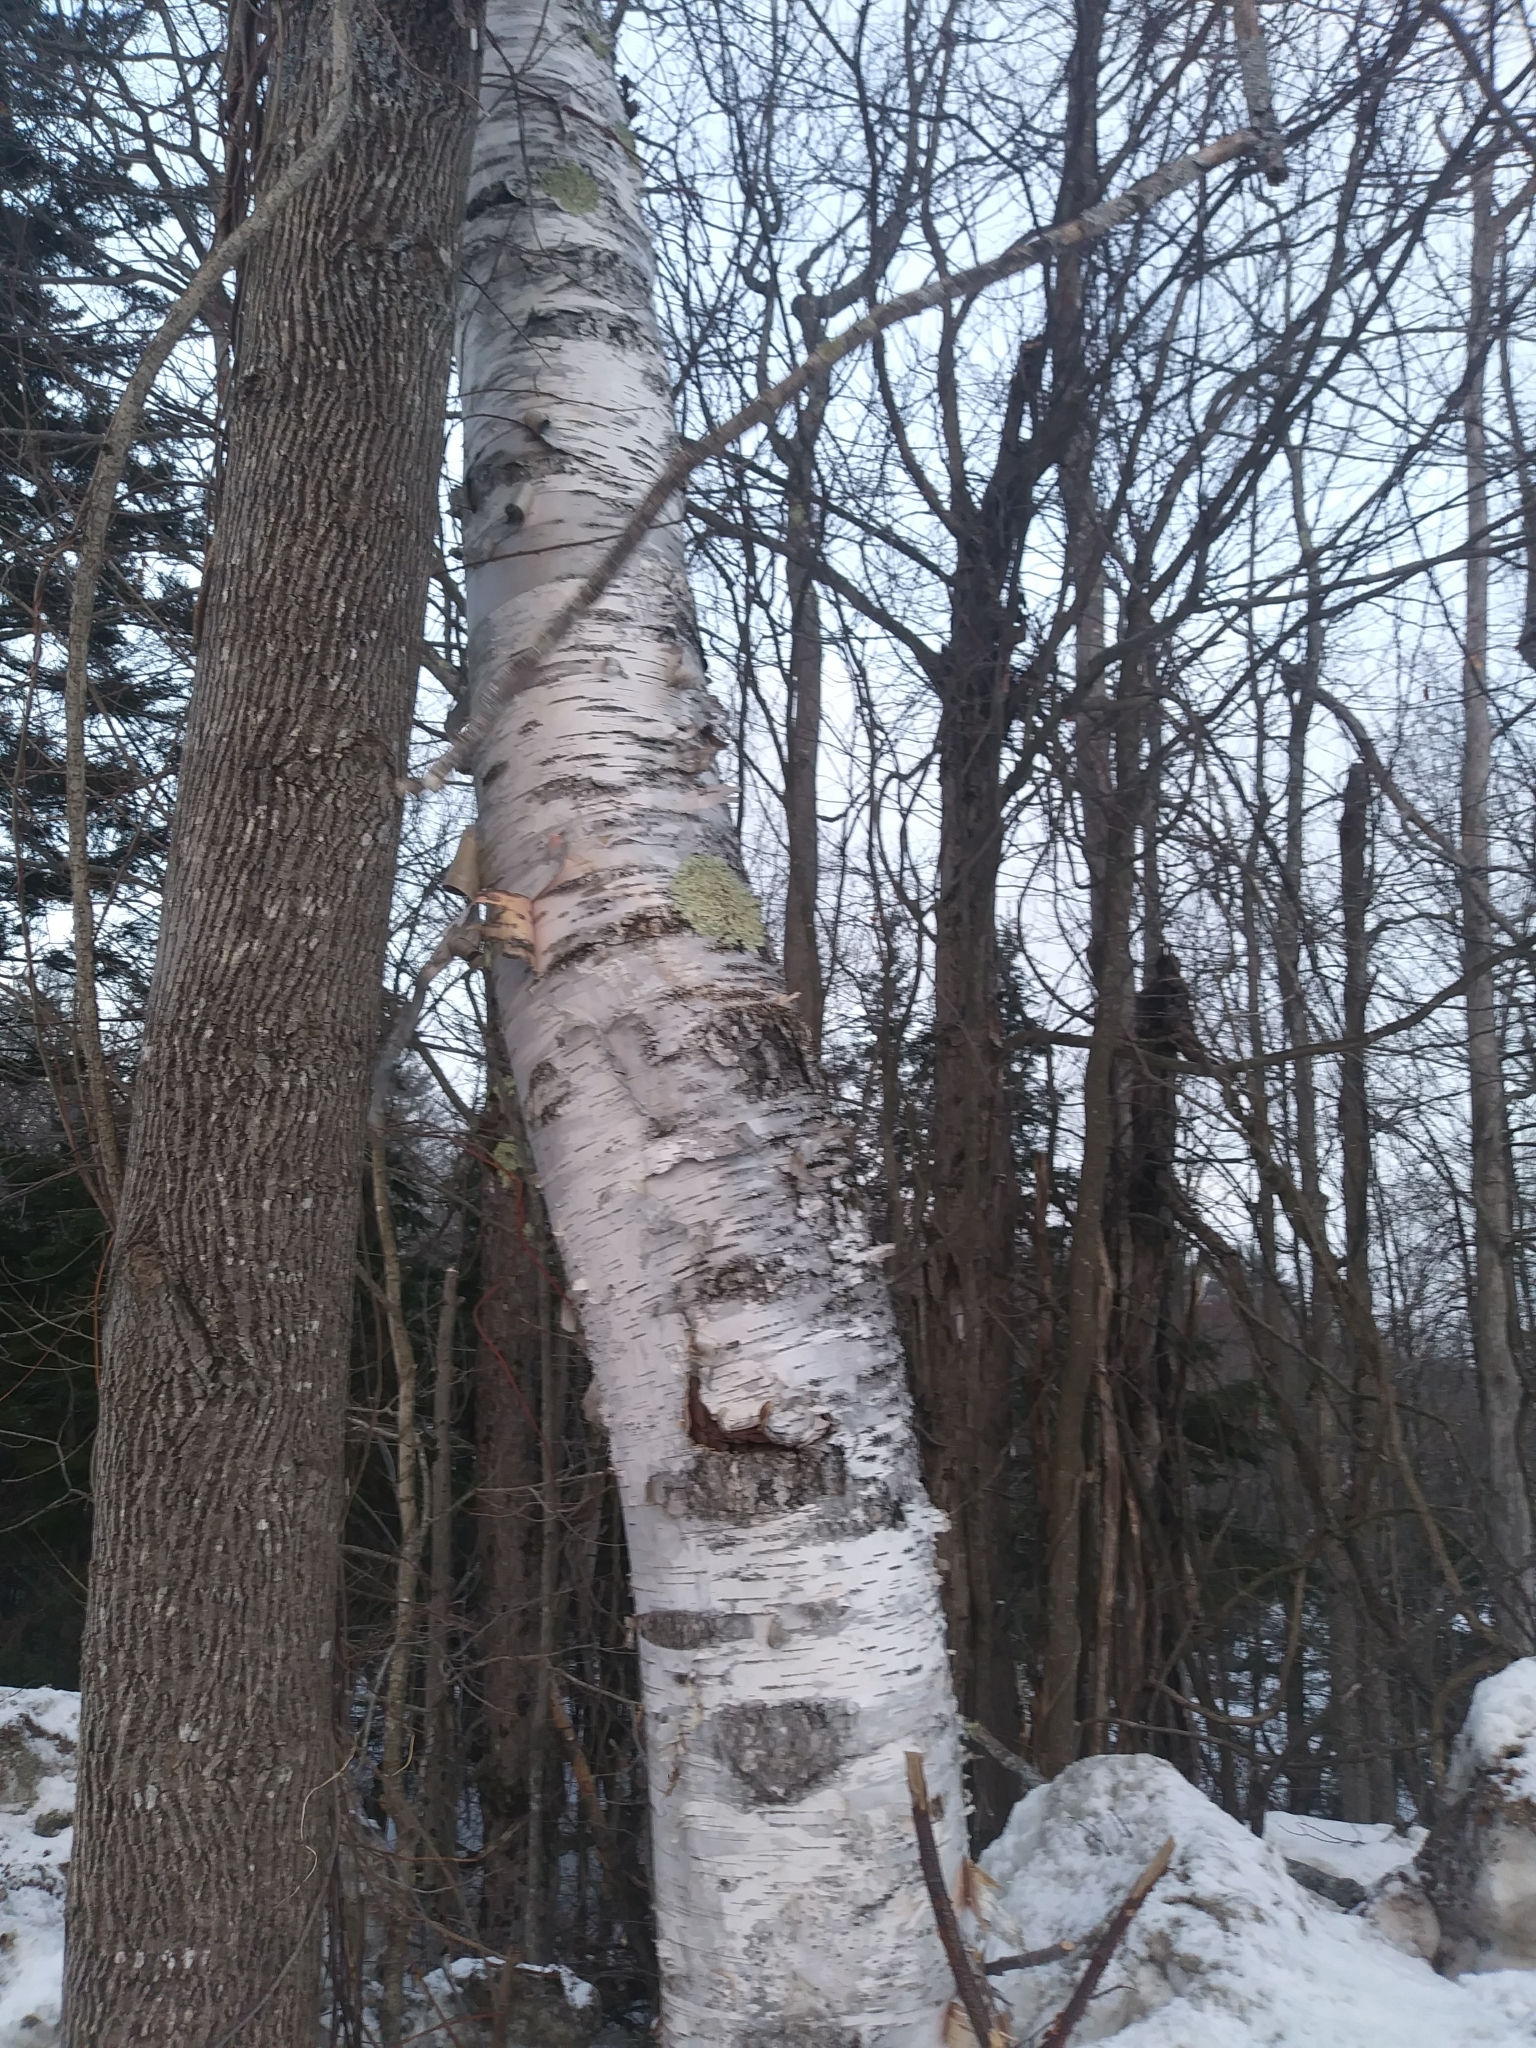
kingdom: Plantae
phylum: Tracheophyta
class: Magnoliopsida
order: Fagales
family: Betulaceae
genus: Betula
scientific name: Betula papyrifera
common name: Paper birch
